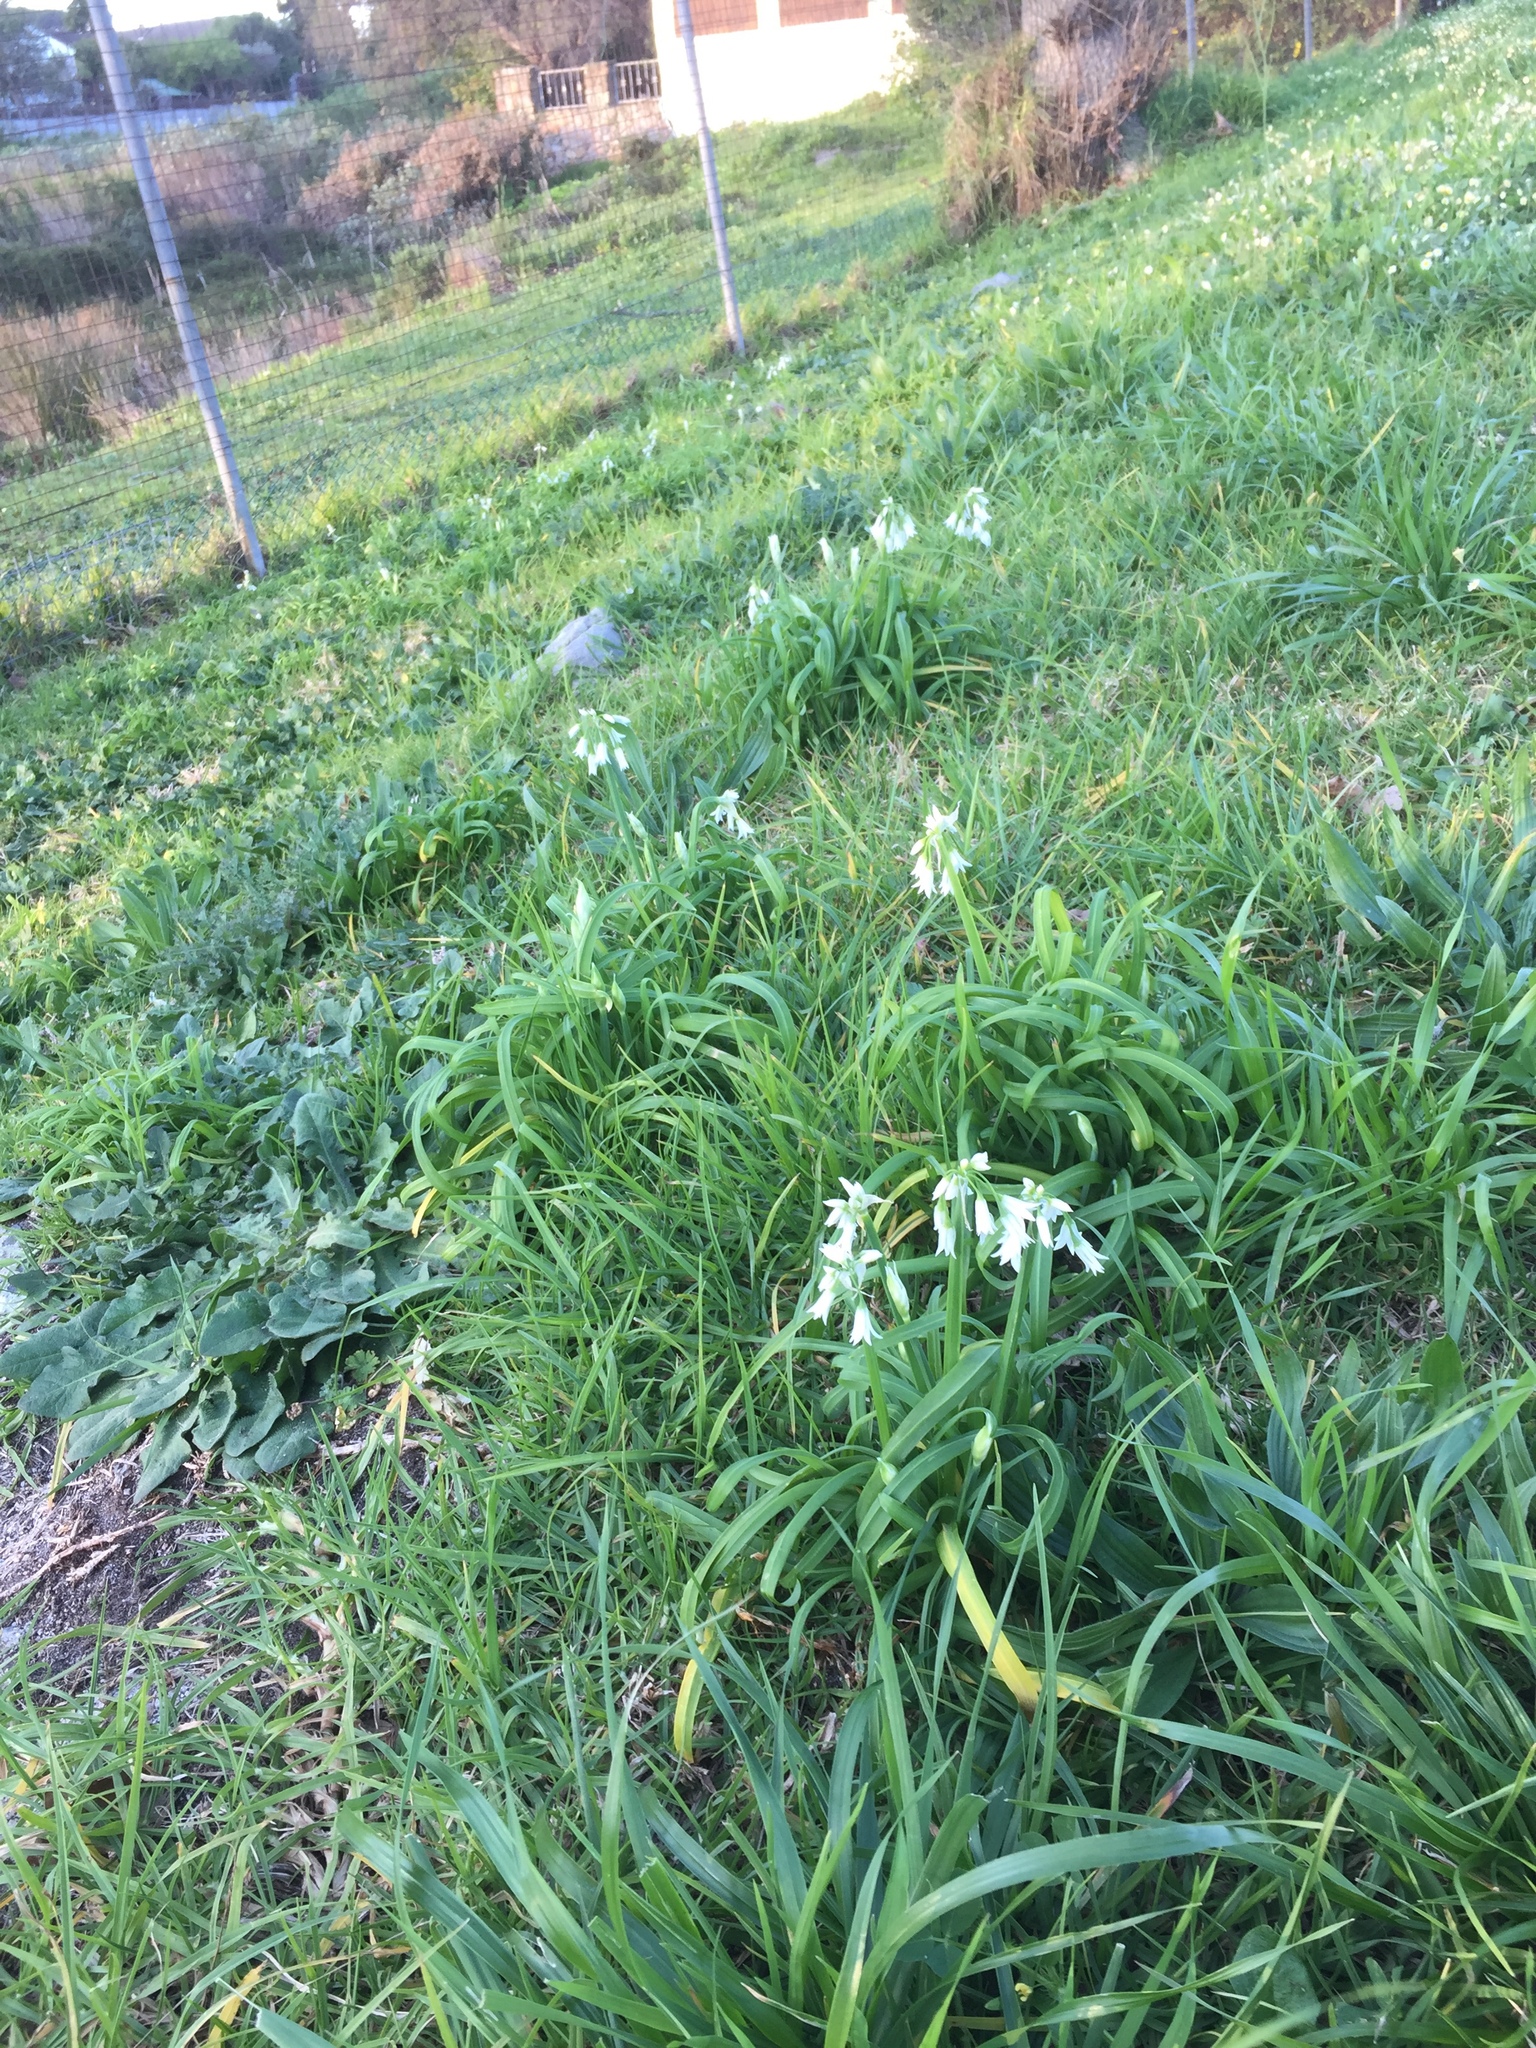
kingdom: Plantae
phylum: Tracheophyta
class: Liliopsida
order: Asparagales
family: Amaryllidaceae
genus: Allium
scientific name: Allium triquetrum
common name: Three-cornered garlic
